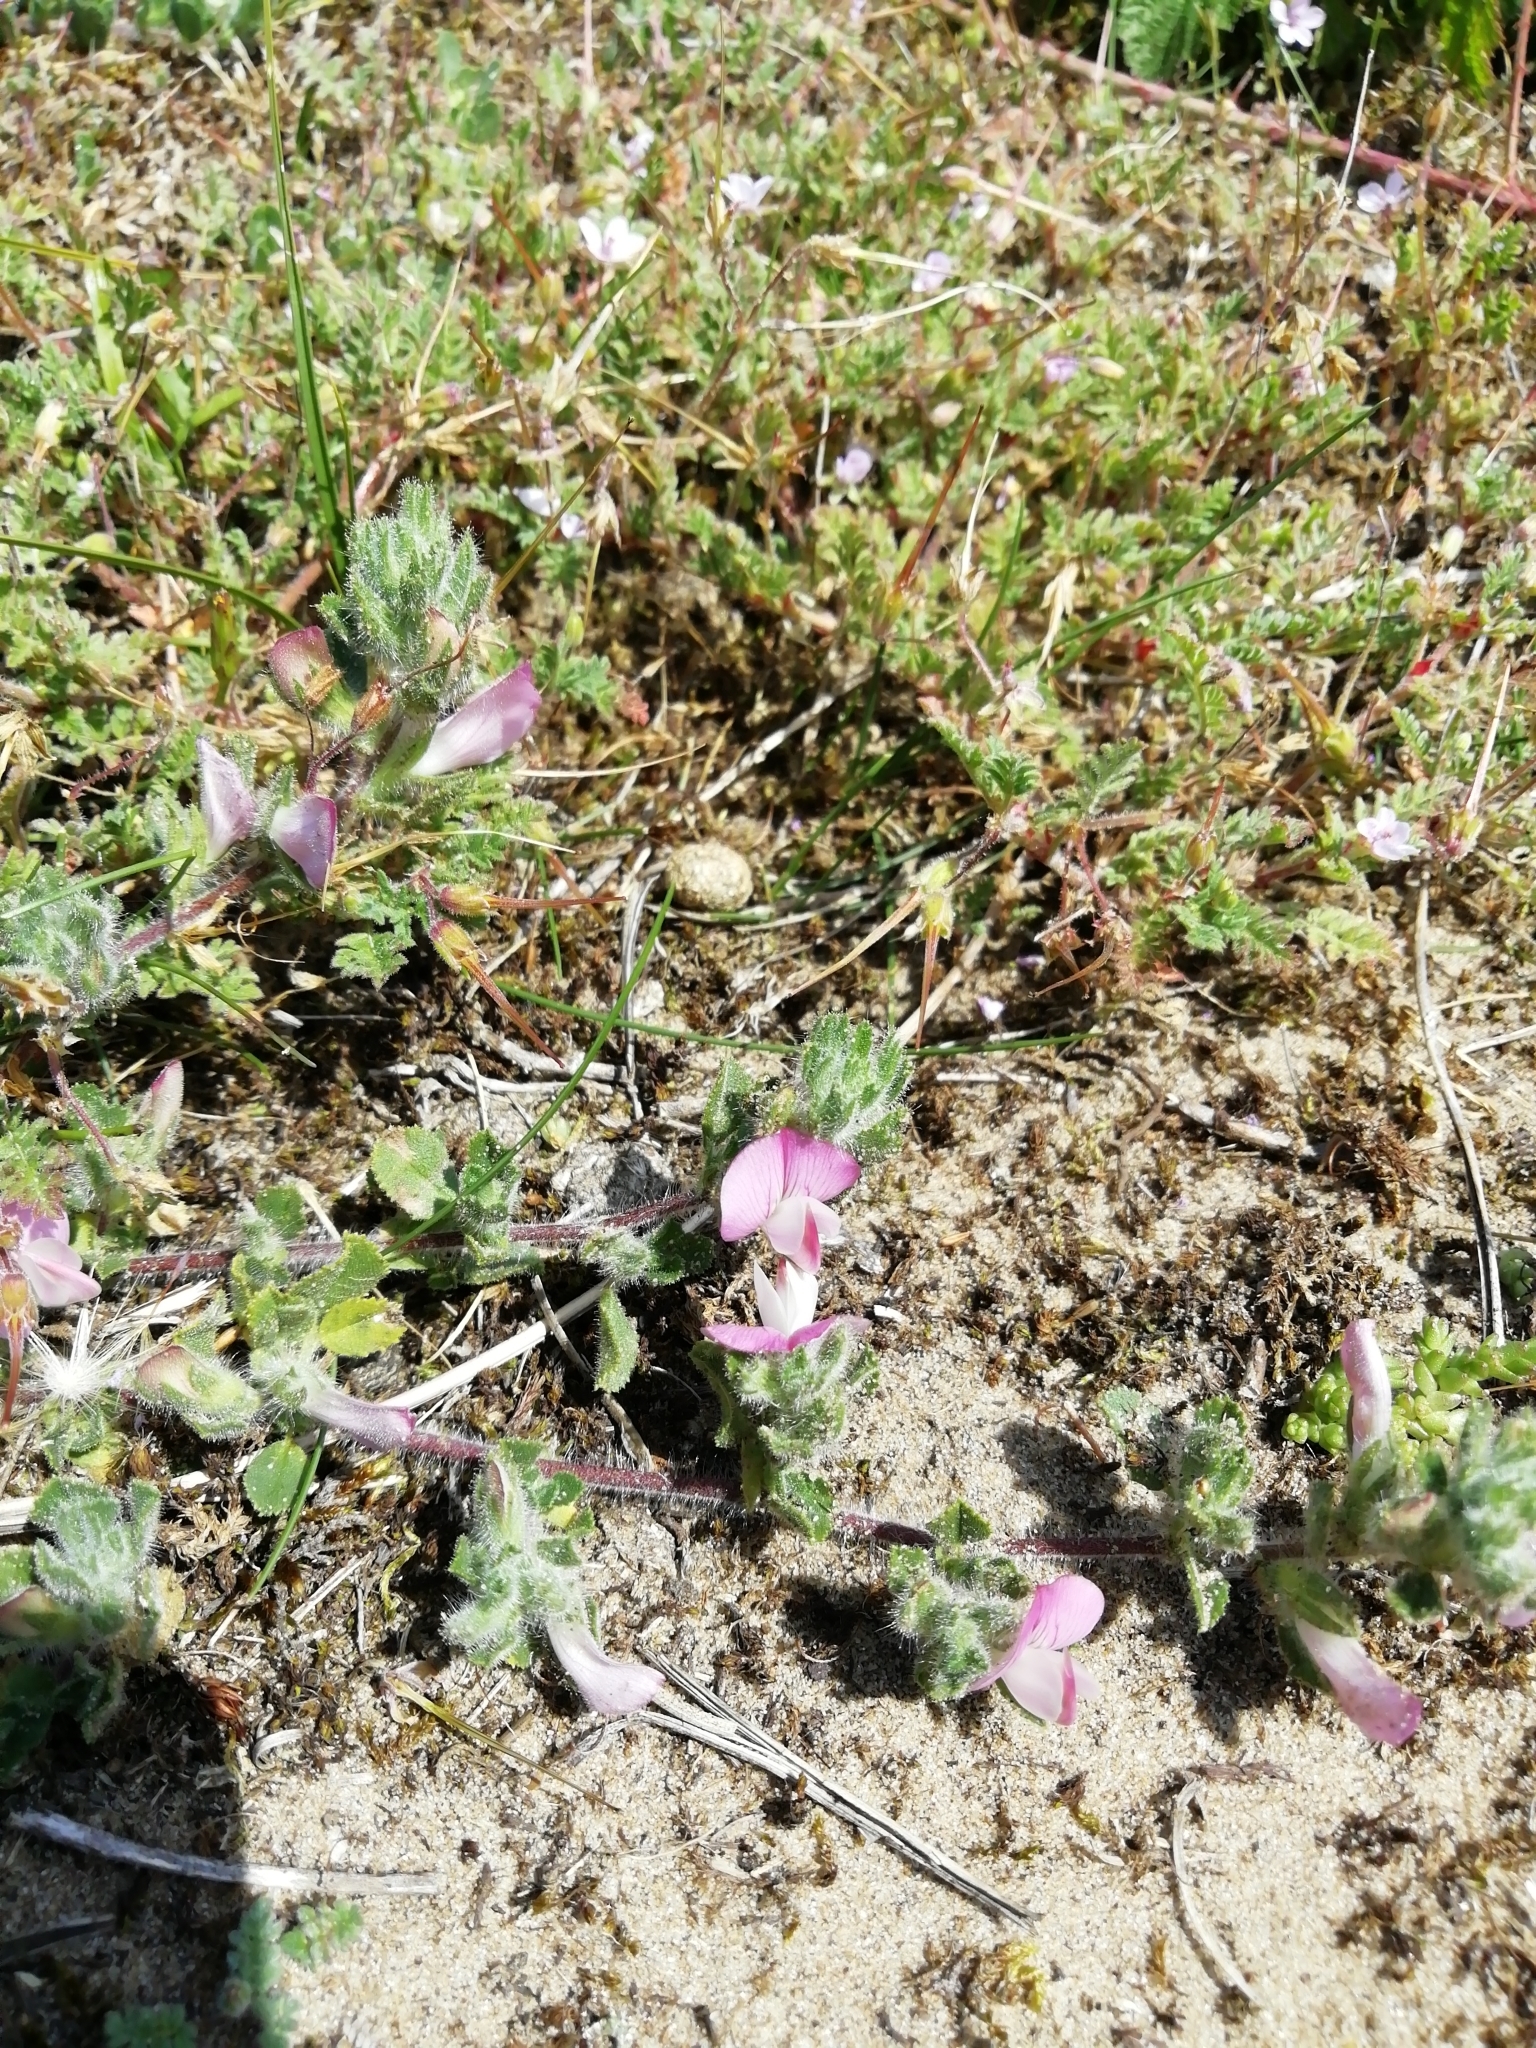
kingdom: Plantae
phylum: Tracheophyta
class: Magnoliopsida
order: Fabales
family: Fabaceae
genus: Ononis
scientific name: Ononis spinosa
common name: Spiny restharrow
